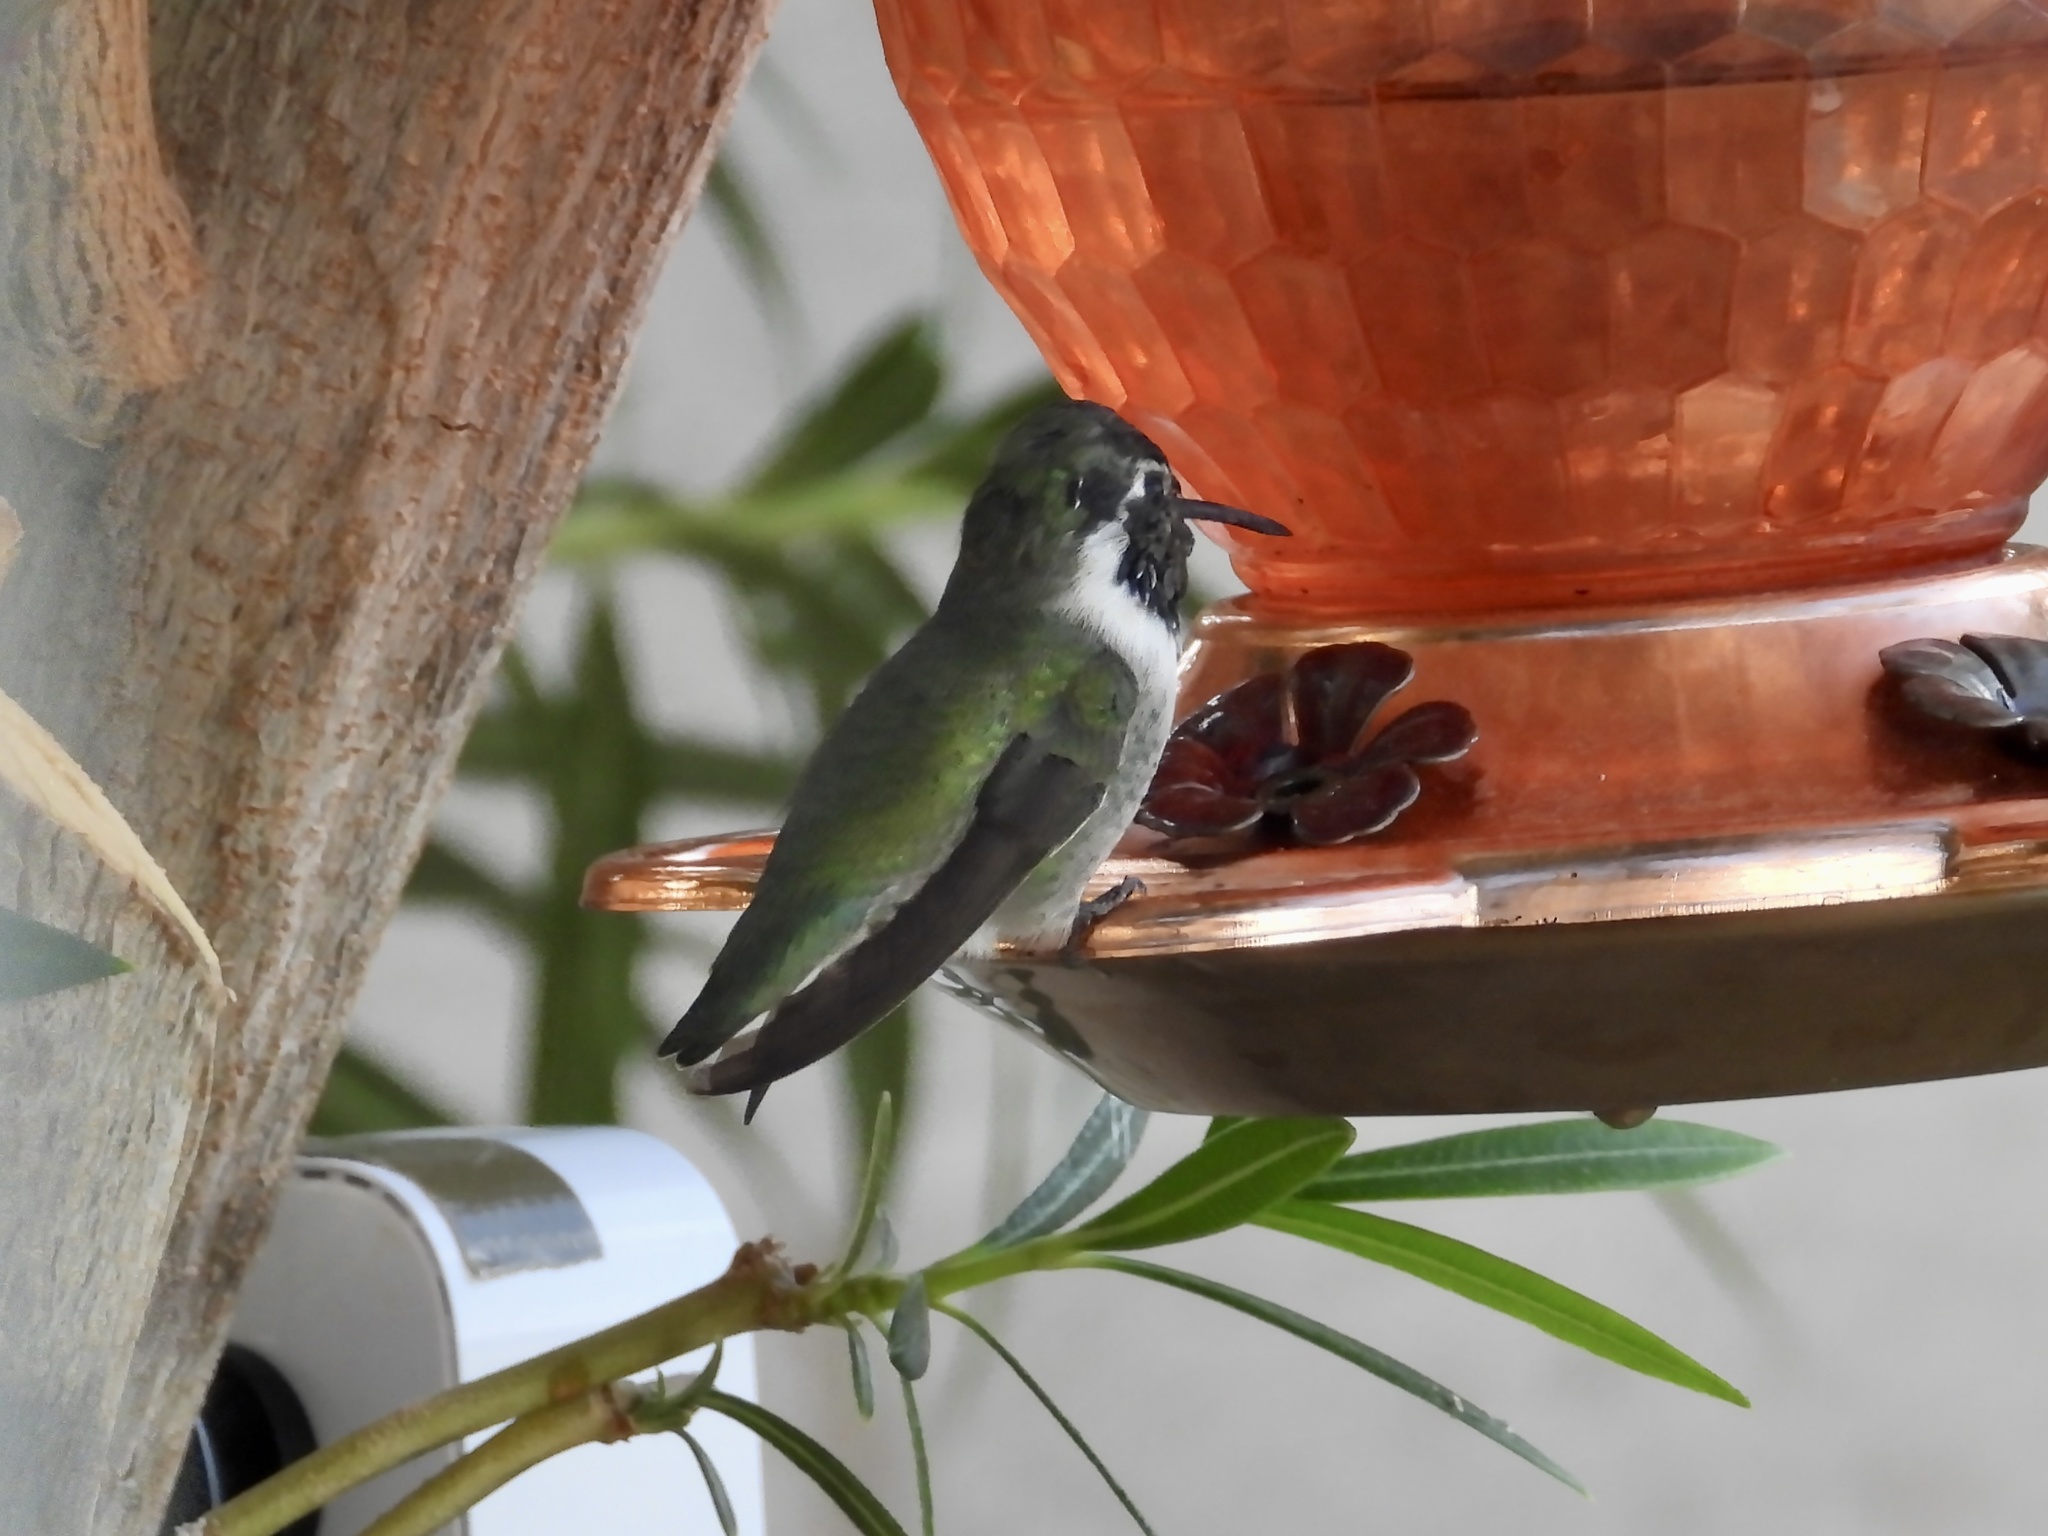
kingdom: Animalia
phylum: Chordata
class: Aves
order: Apodiformes
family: Trochilidae
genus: Calypte
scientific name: Calypte costae
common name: Costa's hummingbird
